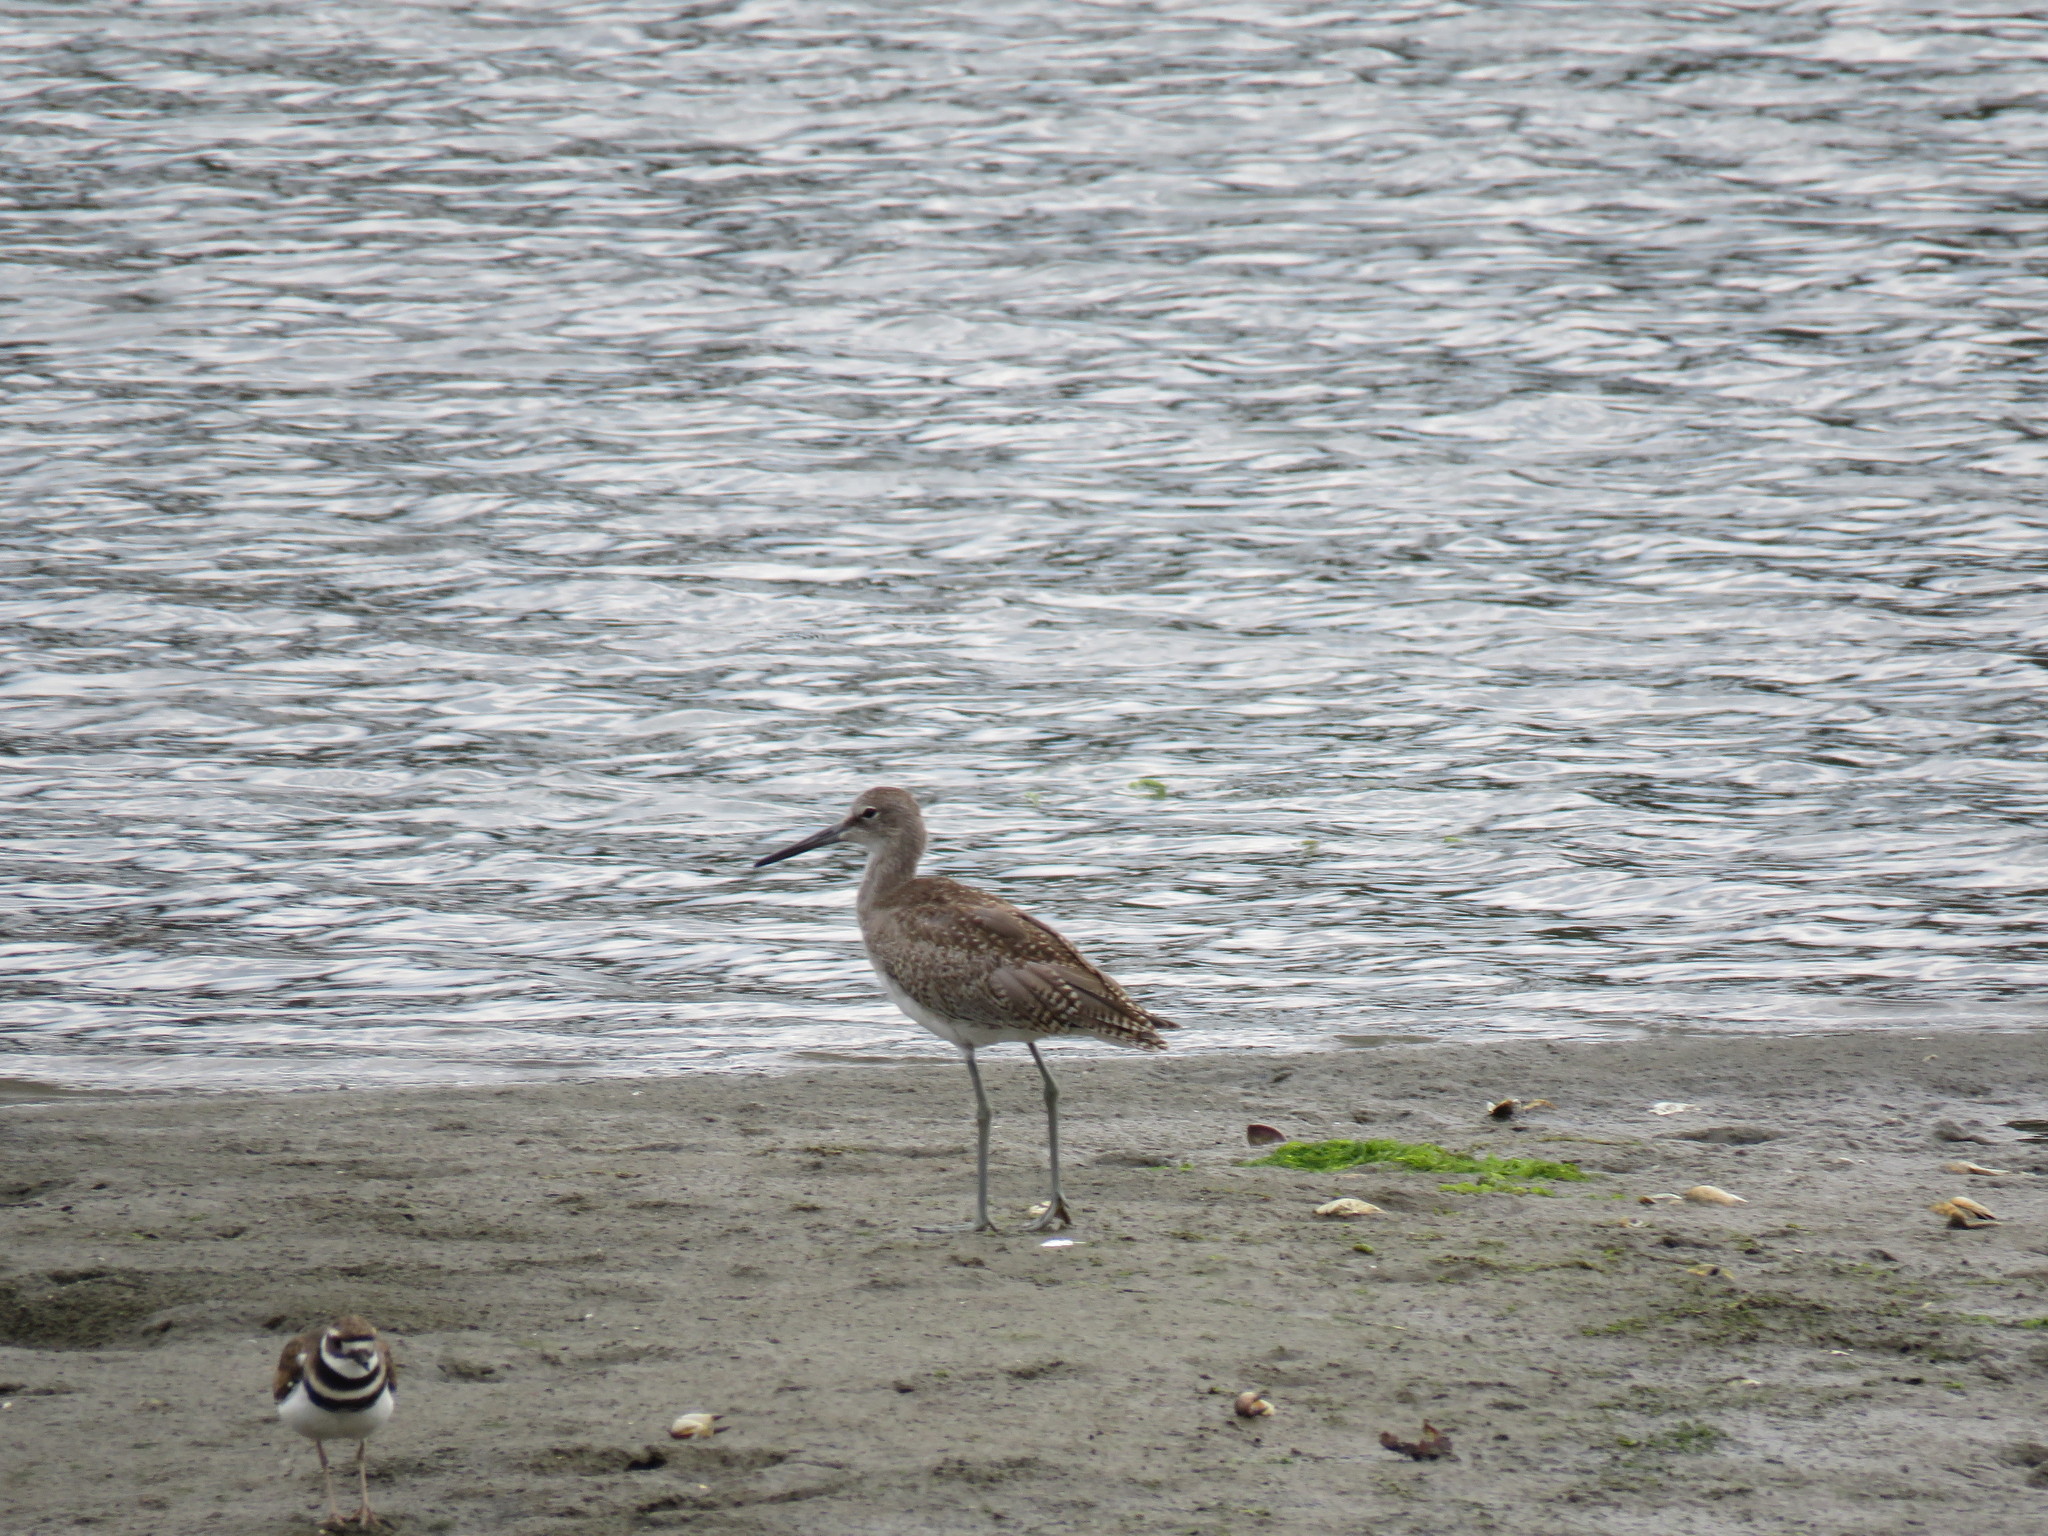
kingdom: Animalia
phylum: Chordata
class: Aves
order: Charadriiformes
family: Scolopacidae
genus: Tringa
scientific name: Tringa semipalmata
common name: Willet
